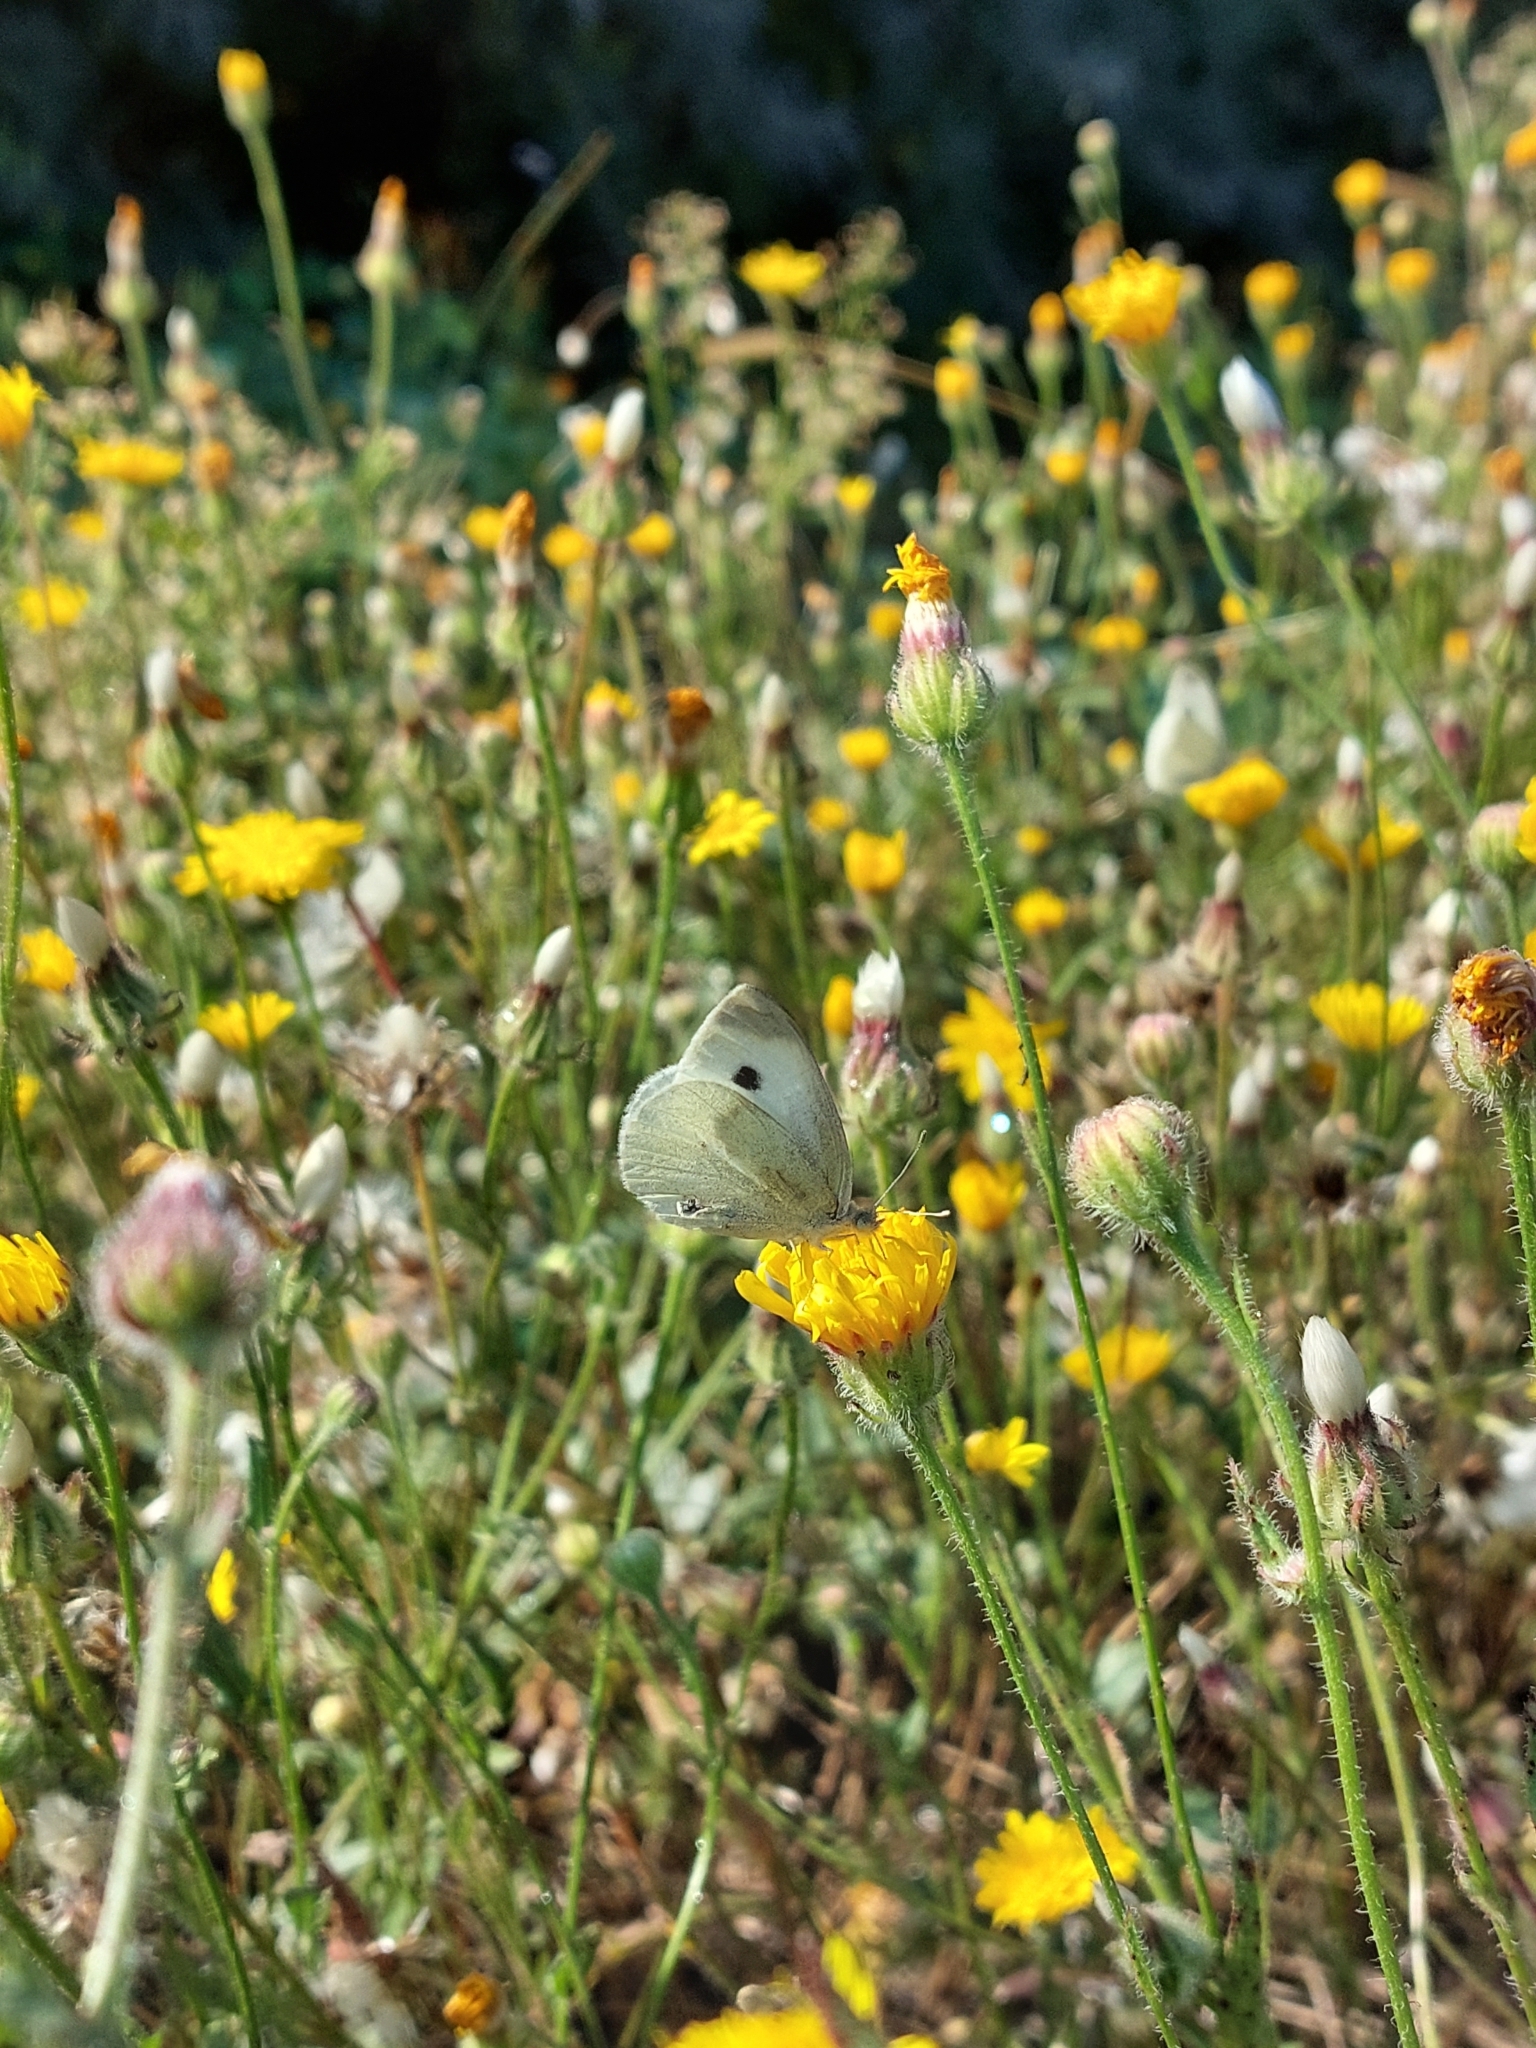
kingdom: Animalia
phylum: Arthropoda
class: Insecta
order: Lepidoptera
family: Pieridae
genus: Pieris
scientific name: Pieris rapae
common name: Small white
